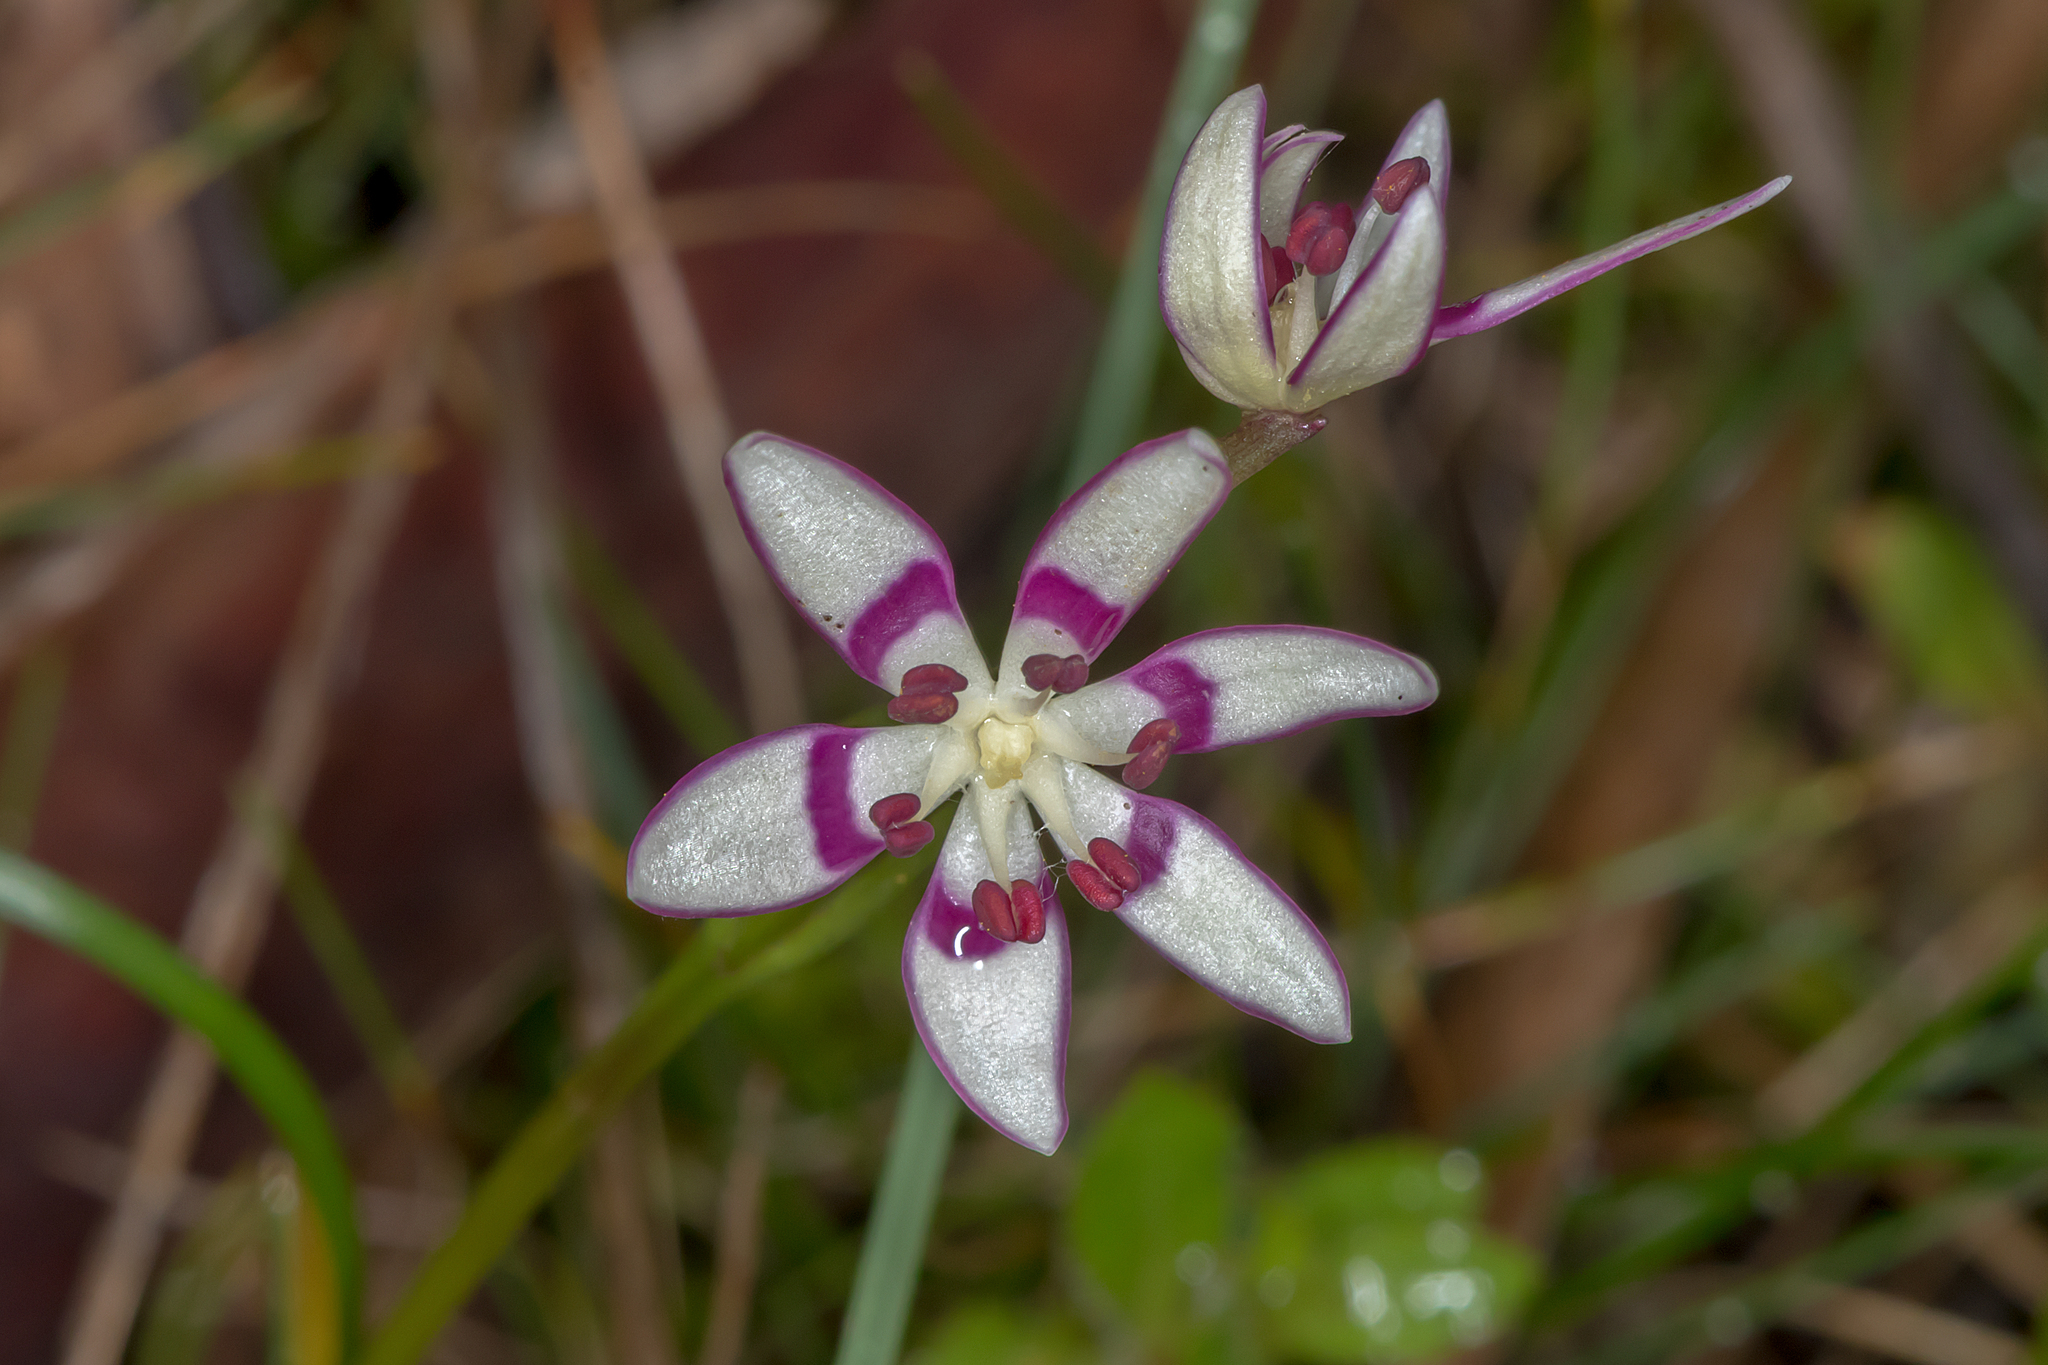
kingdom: Plantae
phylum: Tracheophyta
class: Liliopsida
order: Liliales
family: Colchicaceae
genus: Wurmbea
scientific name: Wurmbea dioica
